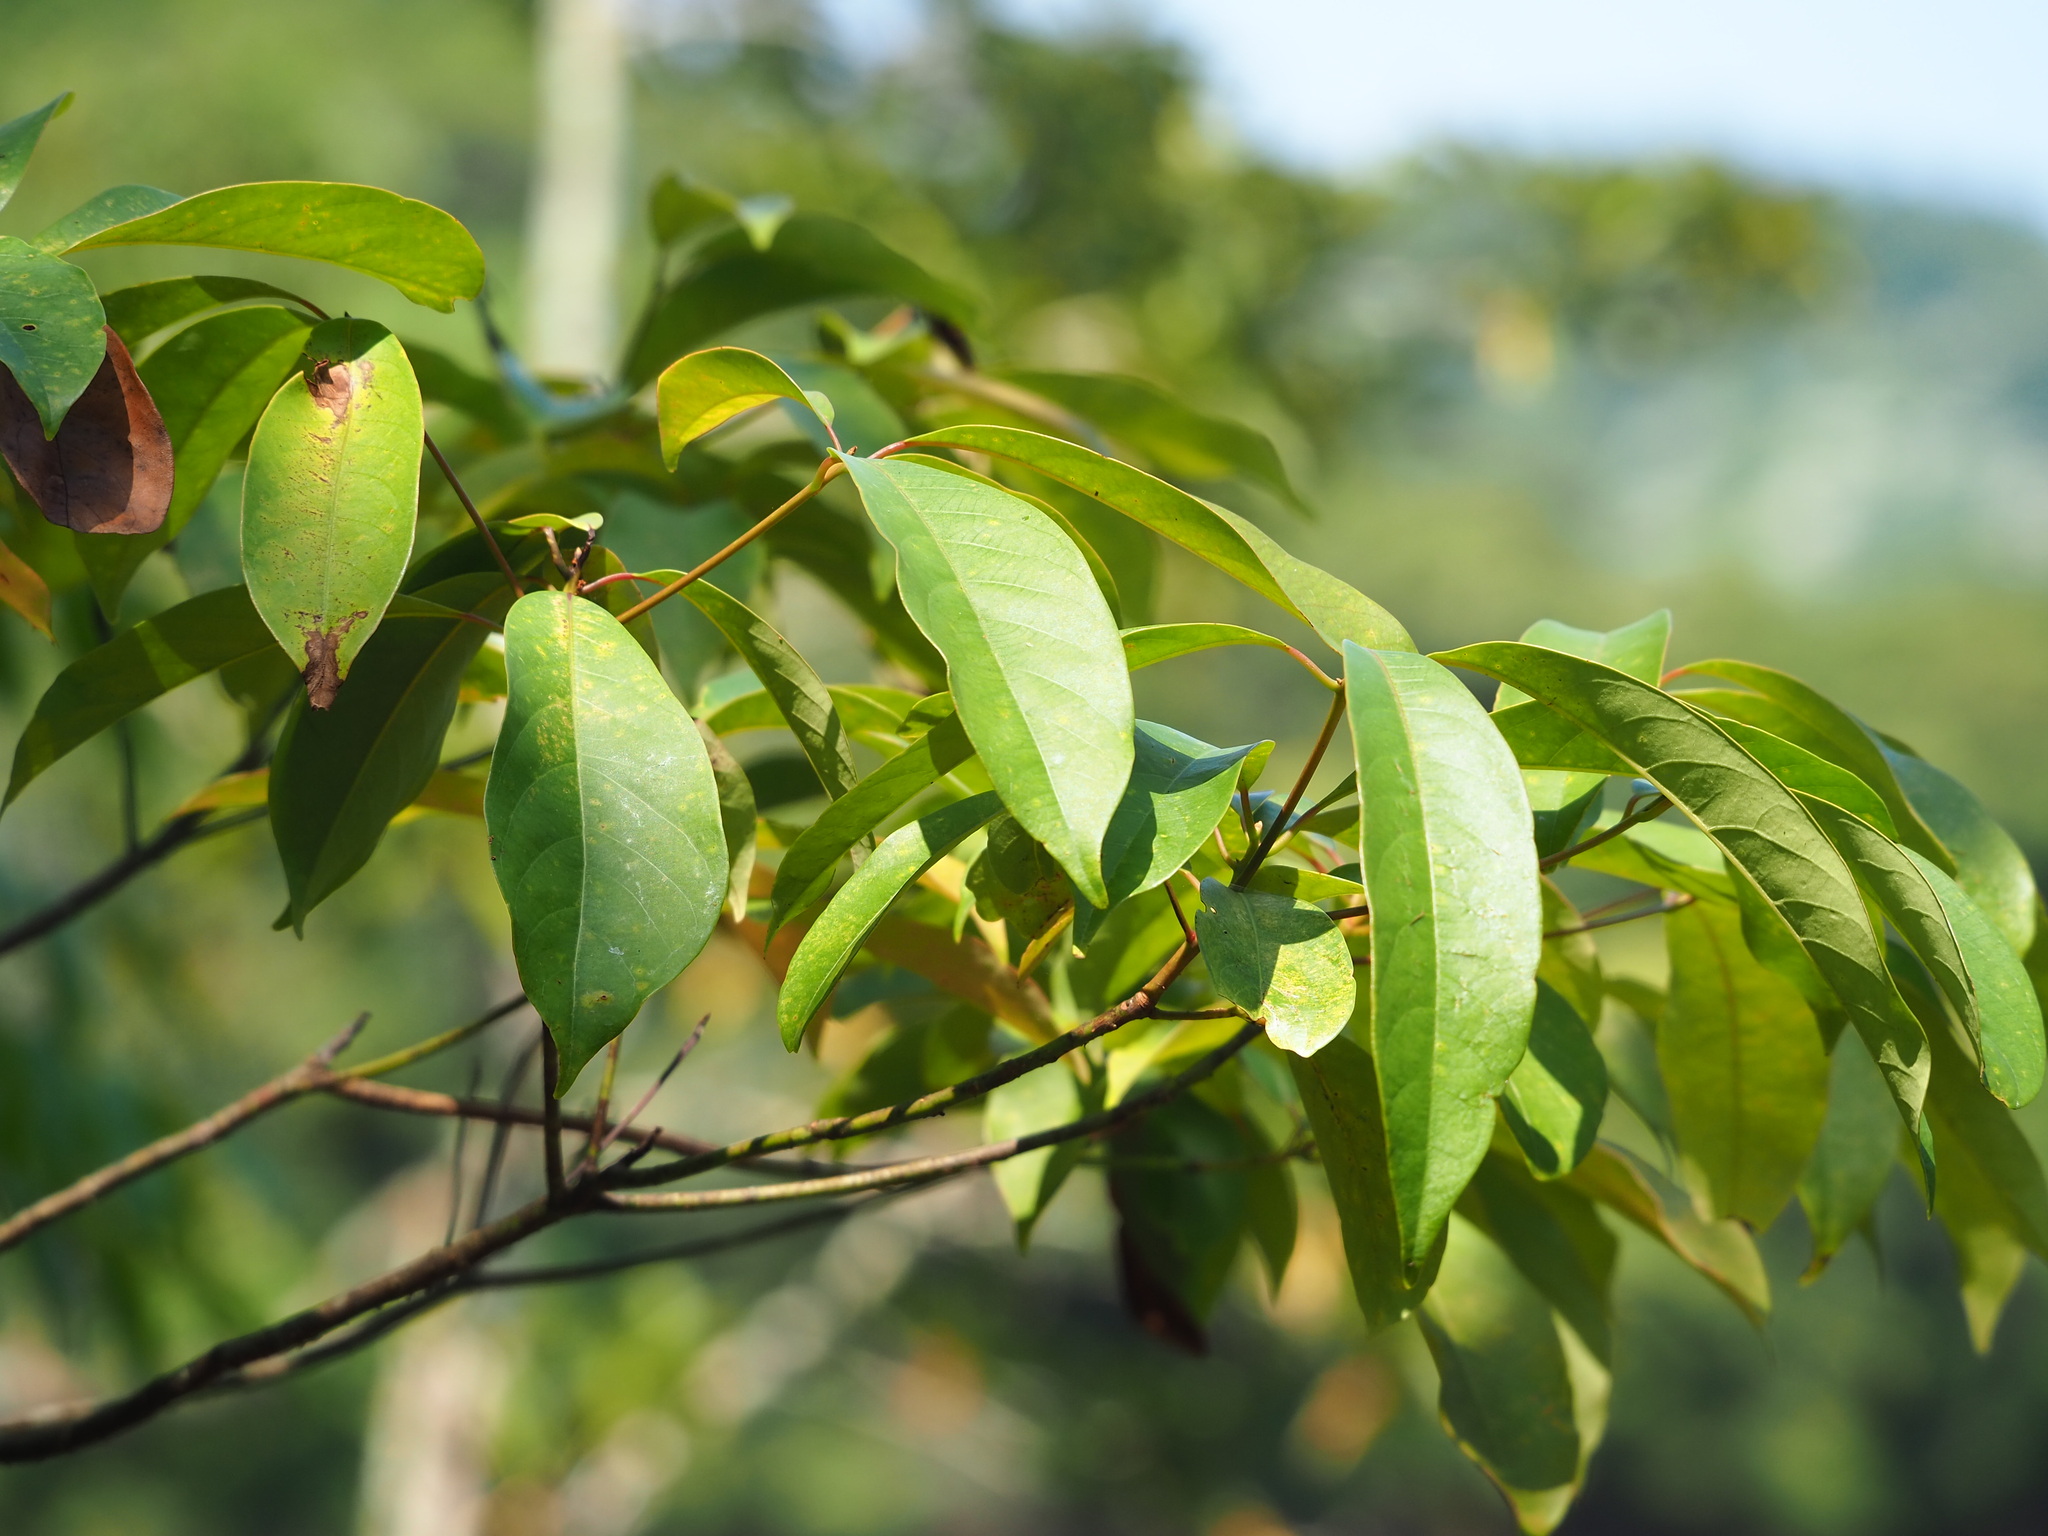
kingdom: Plantae
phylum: Tracheophyta
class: Magnoliopsida
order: Laurales
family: Lauraceae
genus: Machilus
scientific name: Machilus zuihoensis
